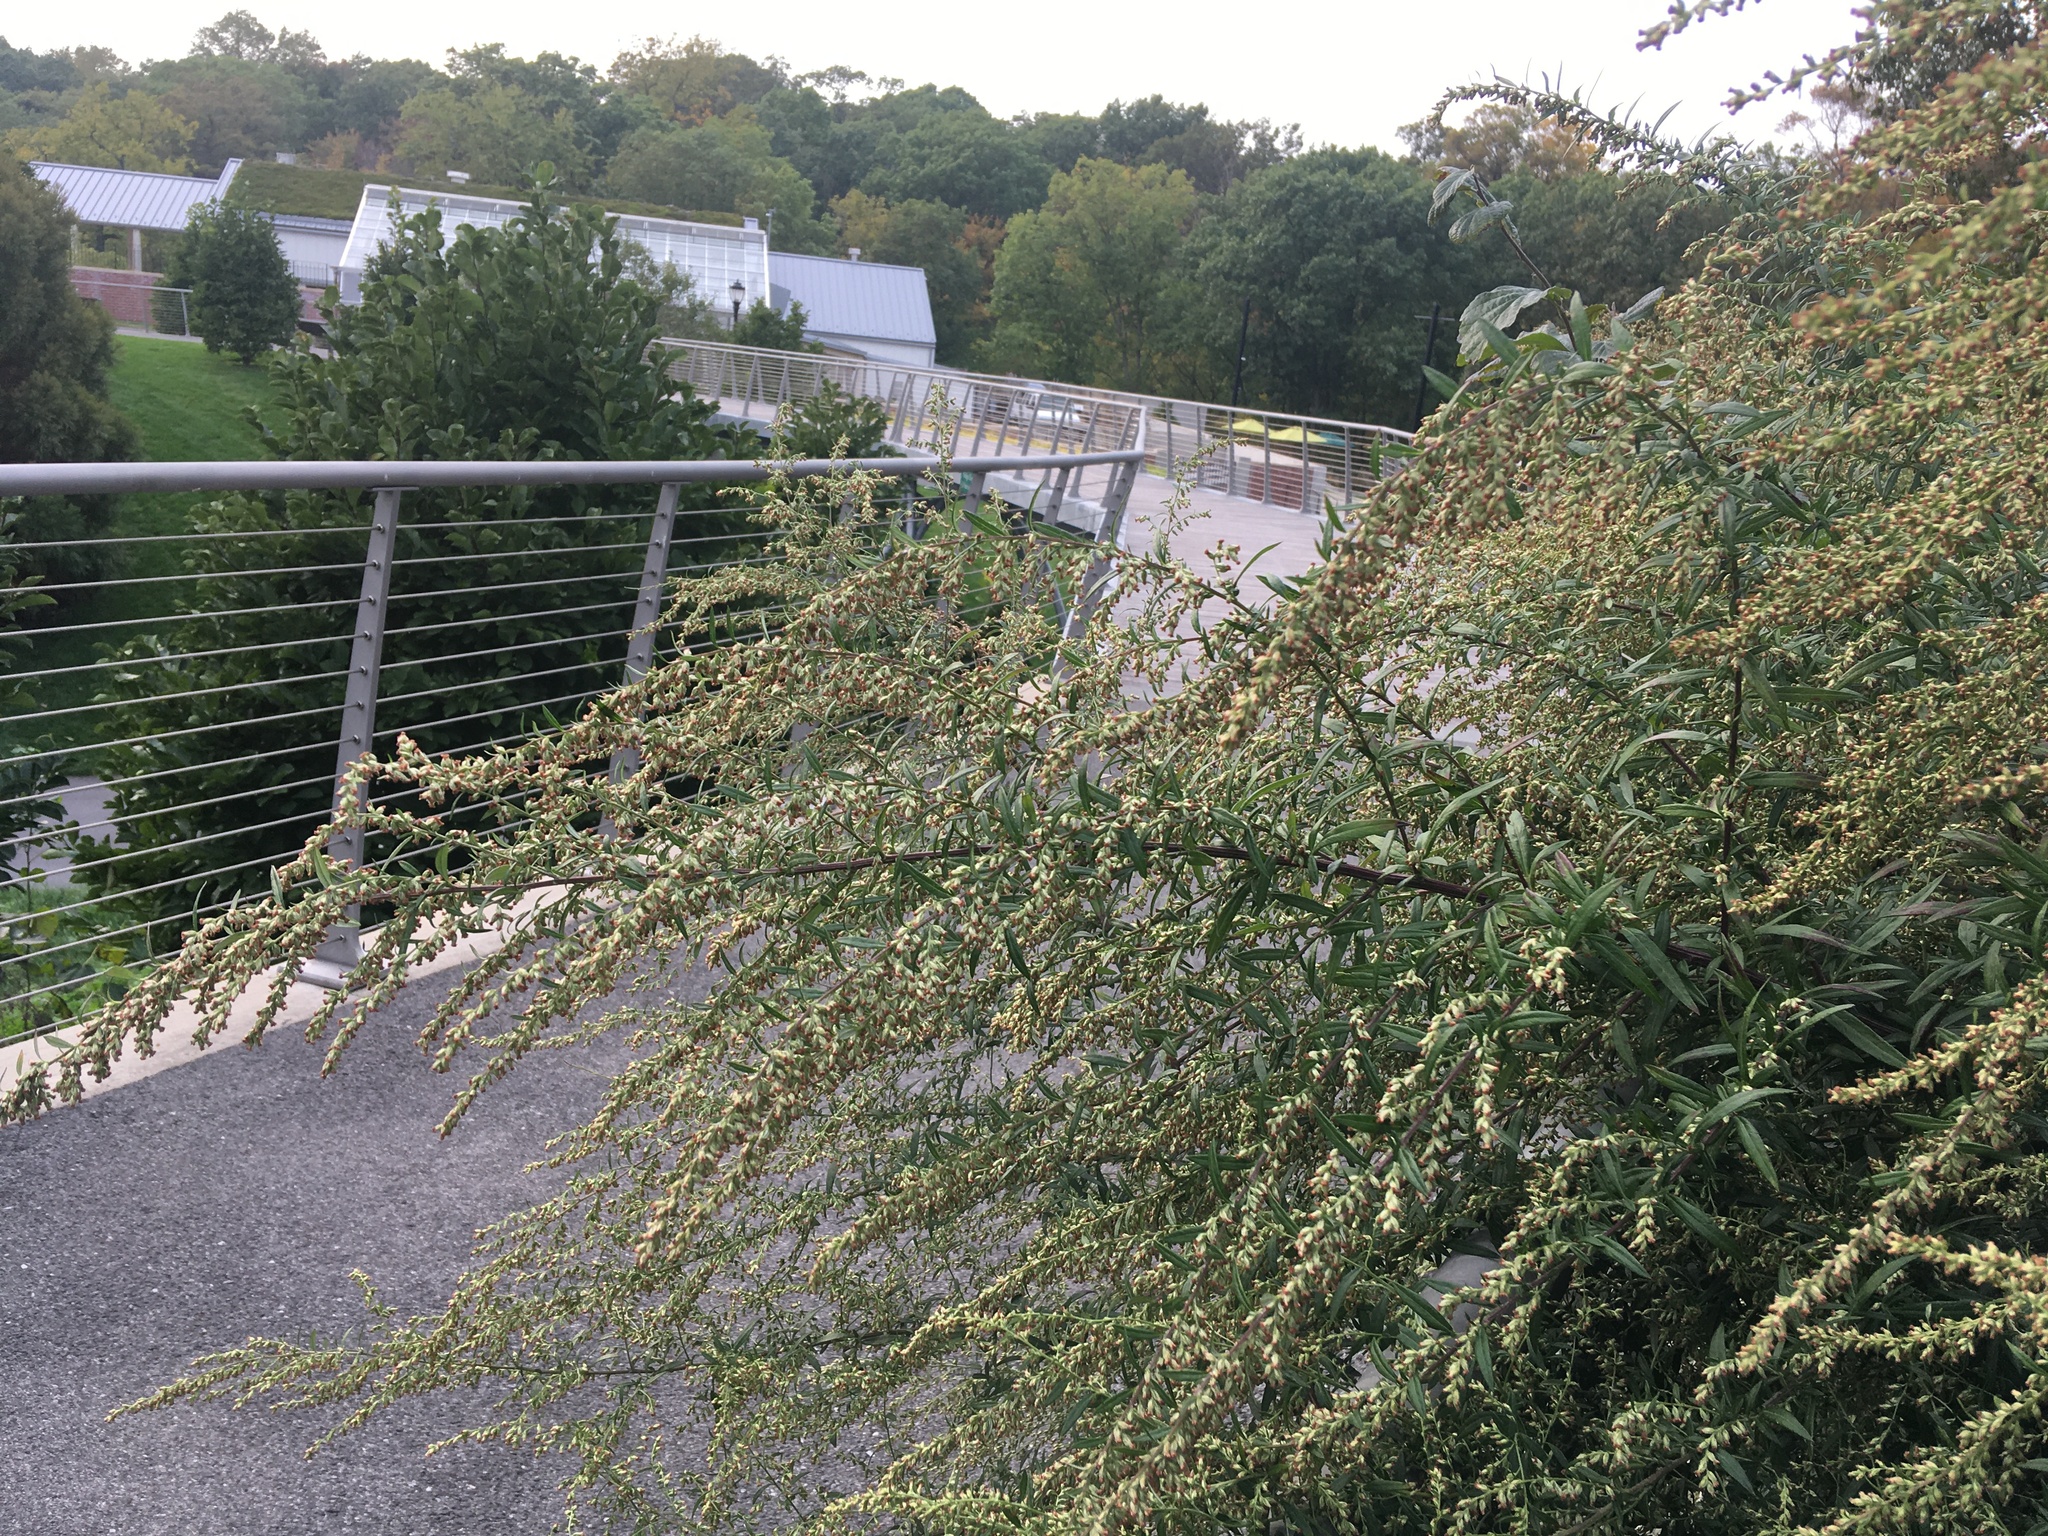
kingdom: Plantae
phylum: Tracheophyta
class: Magnoliopsida
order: Asterales
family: Asteraceae
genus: Artemisia
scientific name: Artemisia vulgaris
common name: Mugwort
